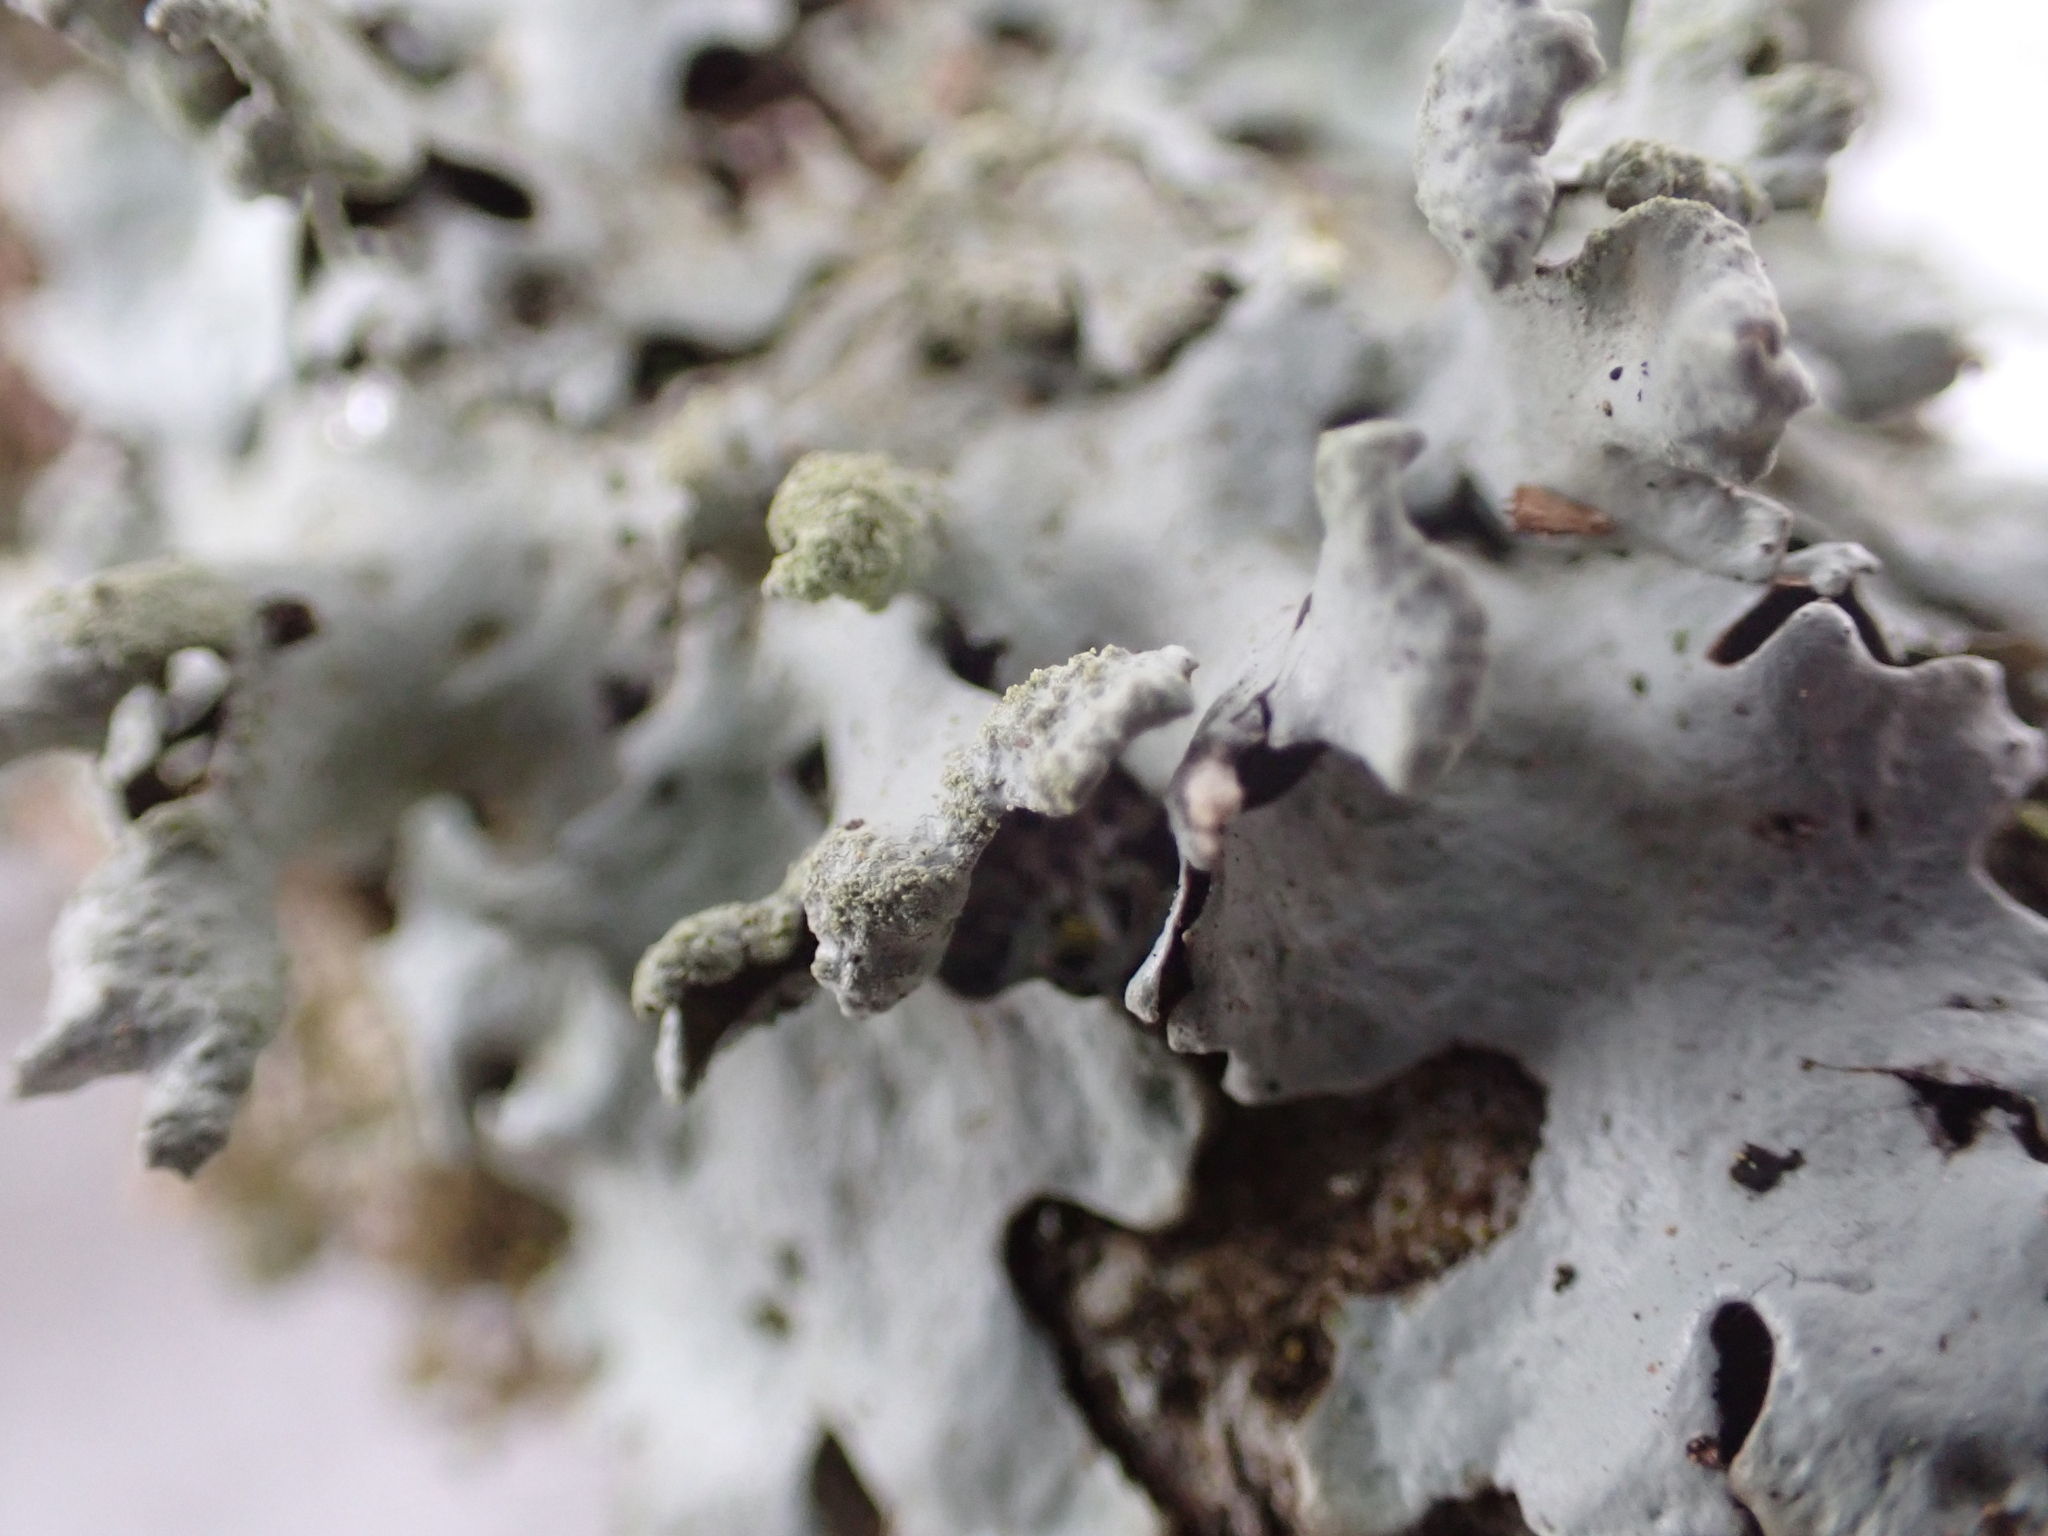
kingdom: Fungi
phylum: Ascomycota
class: Lecanoromycetes
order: Lecanorales
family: Parmeliaceae
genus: Hypotrachyna
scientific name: Hypotrachyna revoluta
